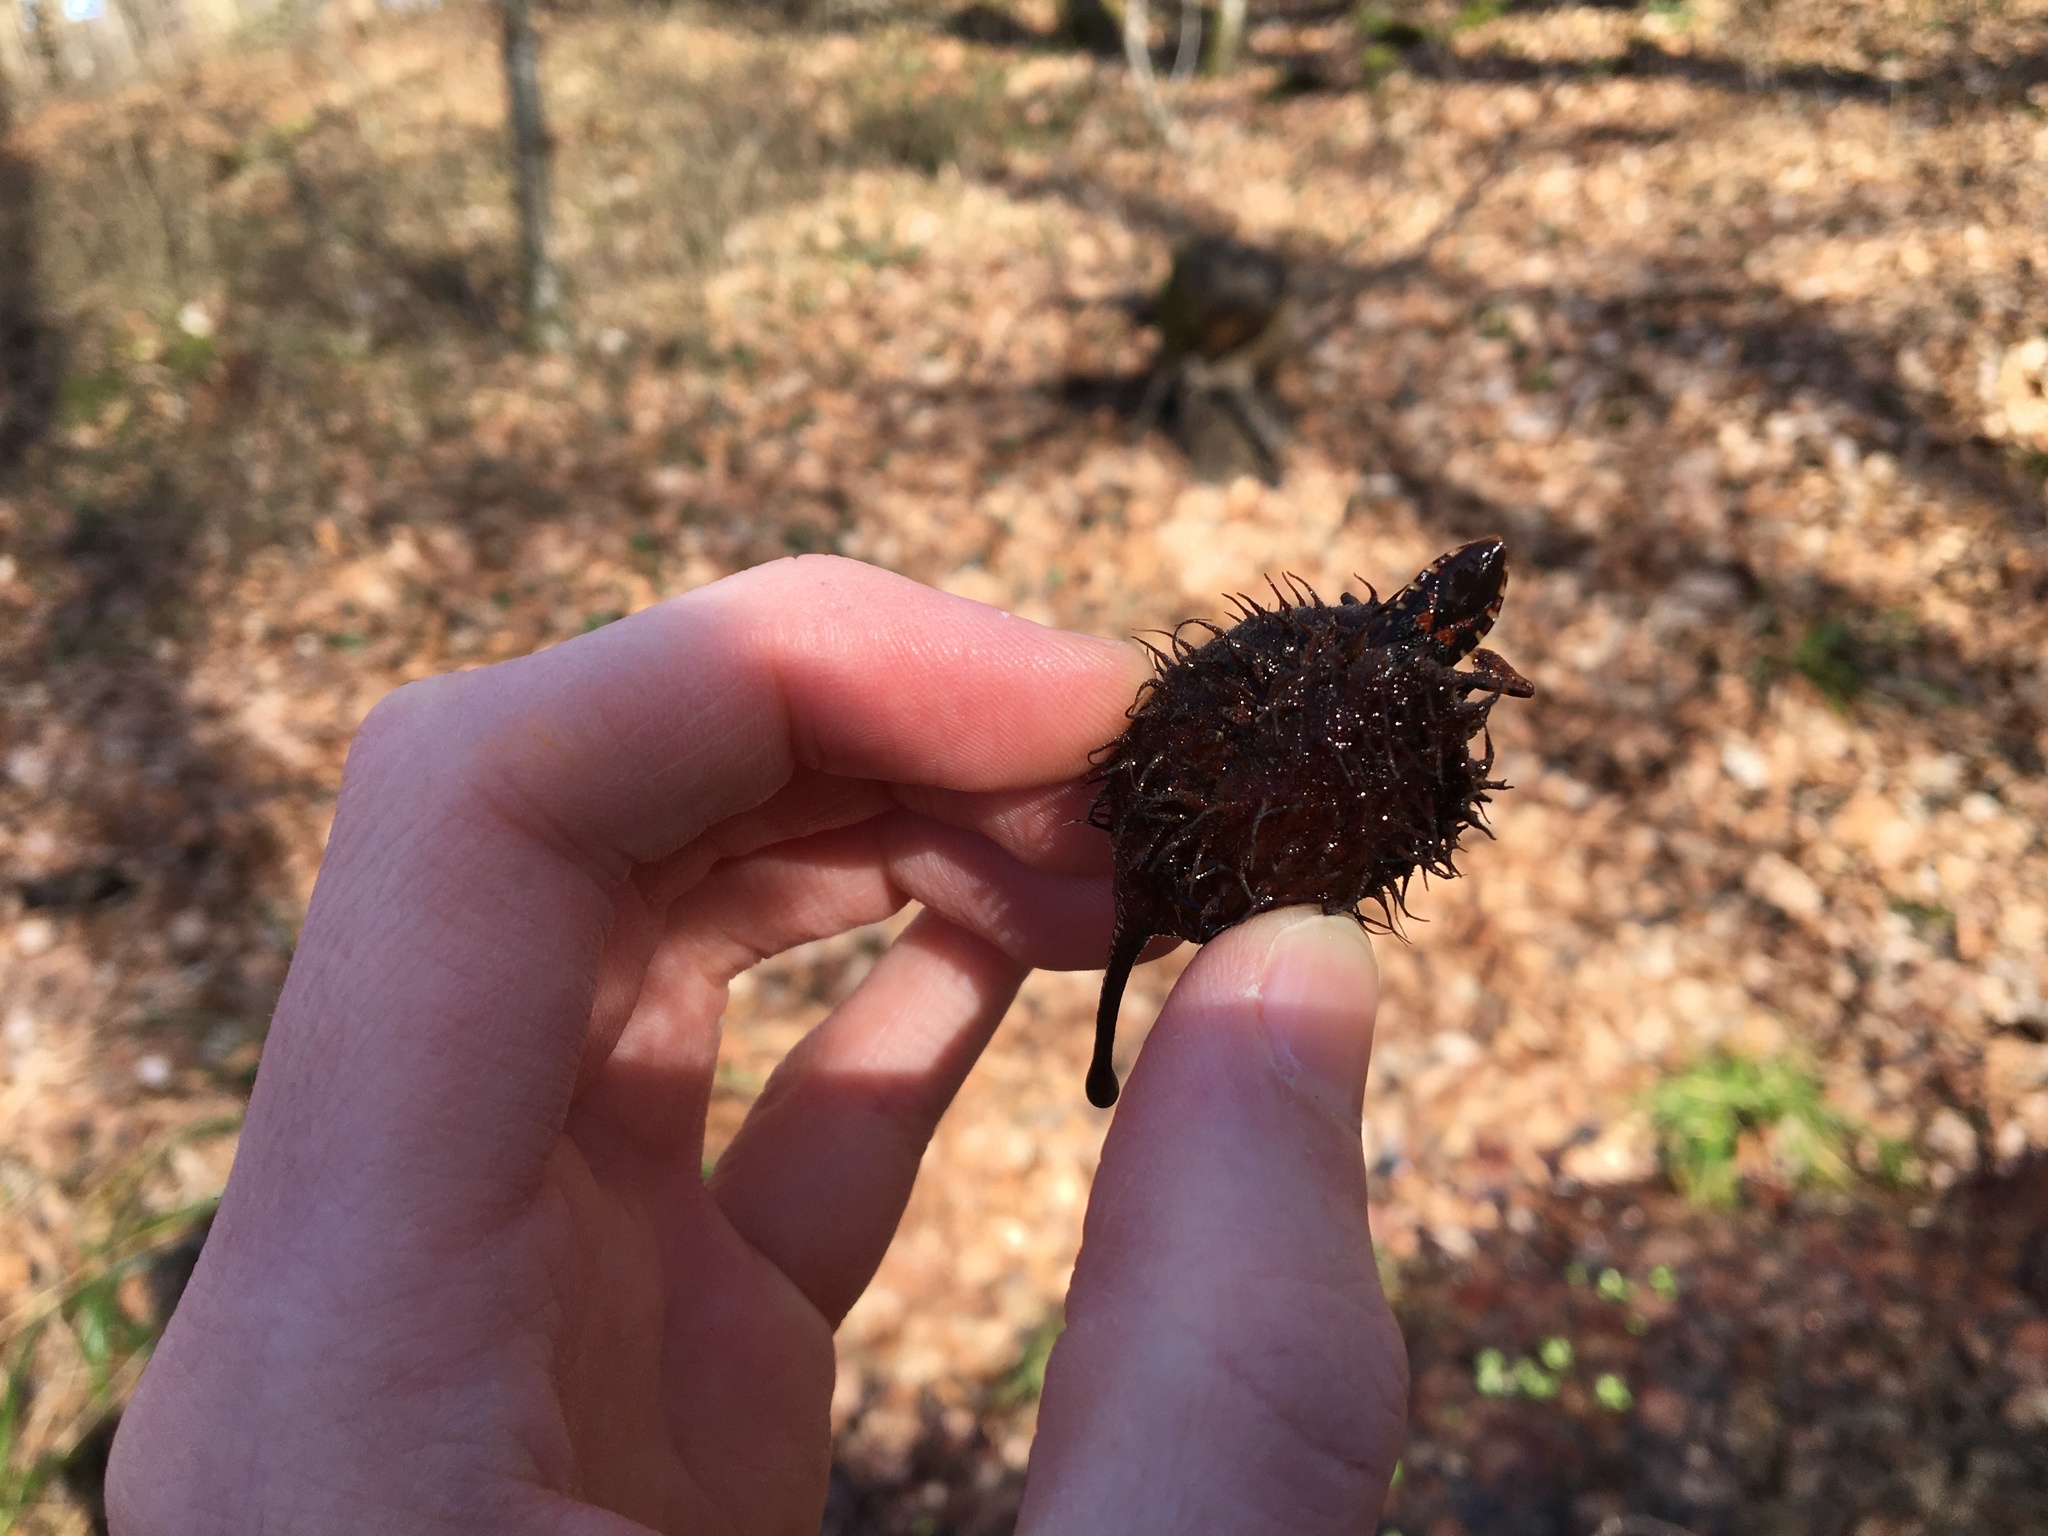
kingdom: Animalia
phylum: Arthropoda
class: Insecta
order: Hemiptera
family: Coreidae
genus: Leptoglossus
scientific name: Leptoglossus occidentalis
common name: Western conifer-seed bug
